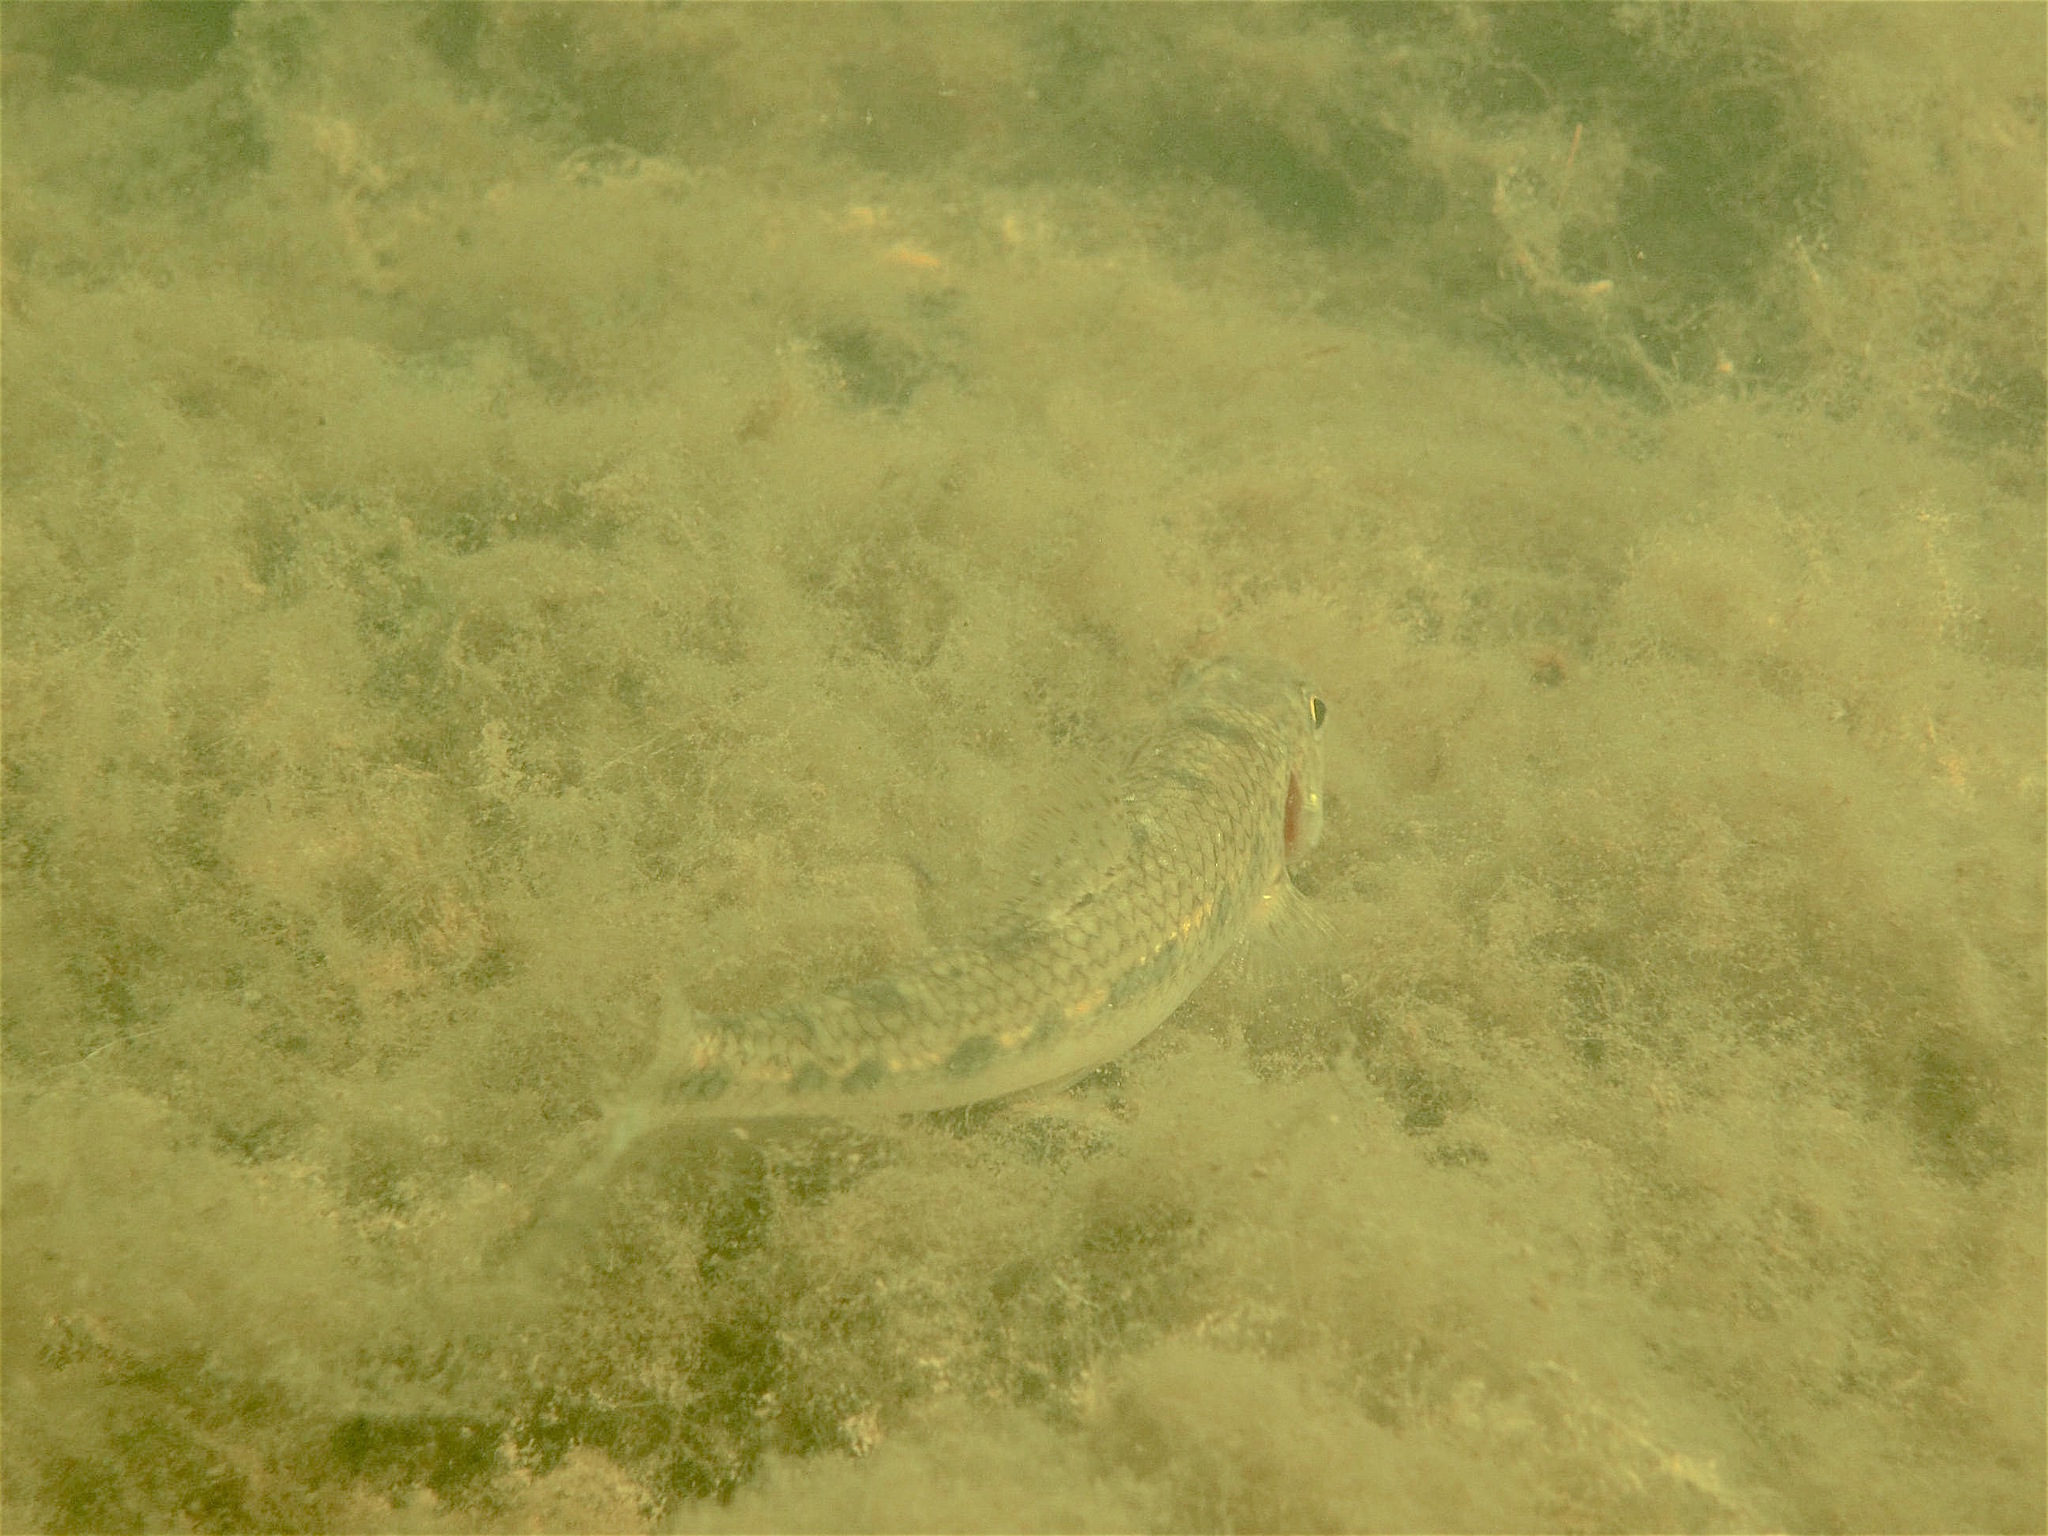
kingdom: Animalia
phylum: Chordata
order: Cypriniformes
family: Cyprinidae
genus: Gobio
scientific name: Gobio volgensis
